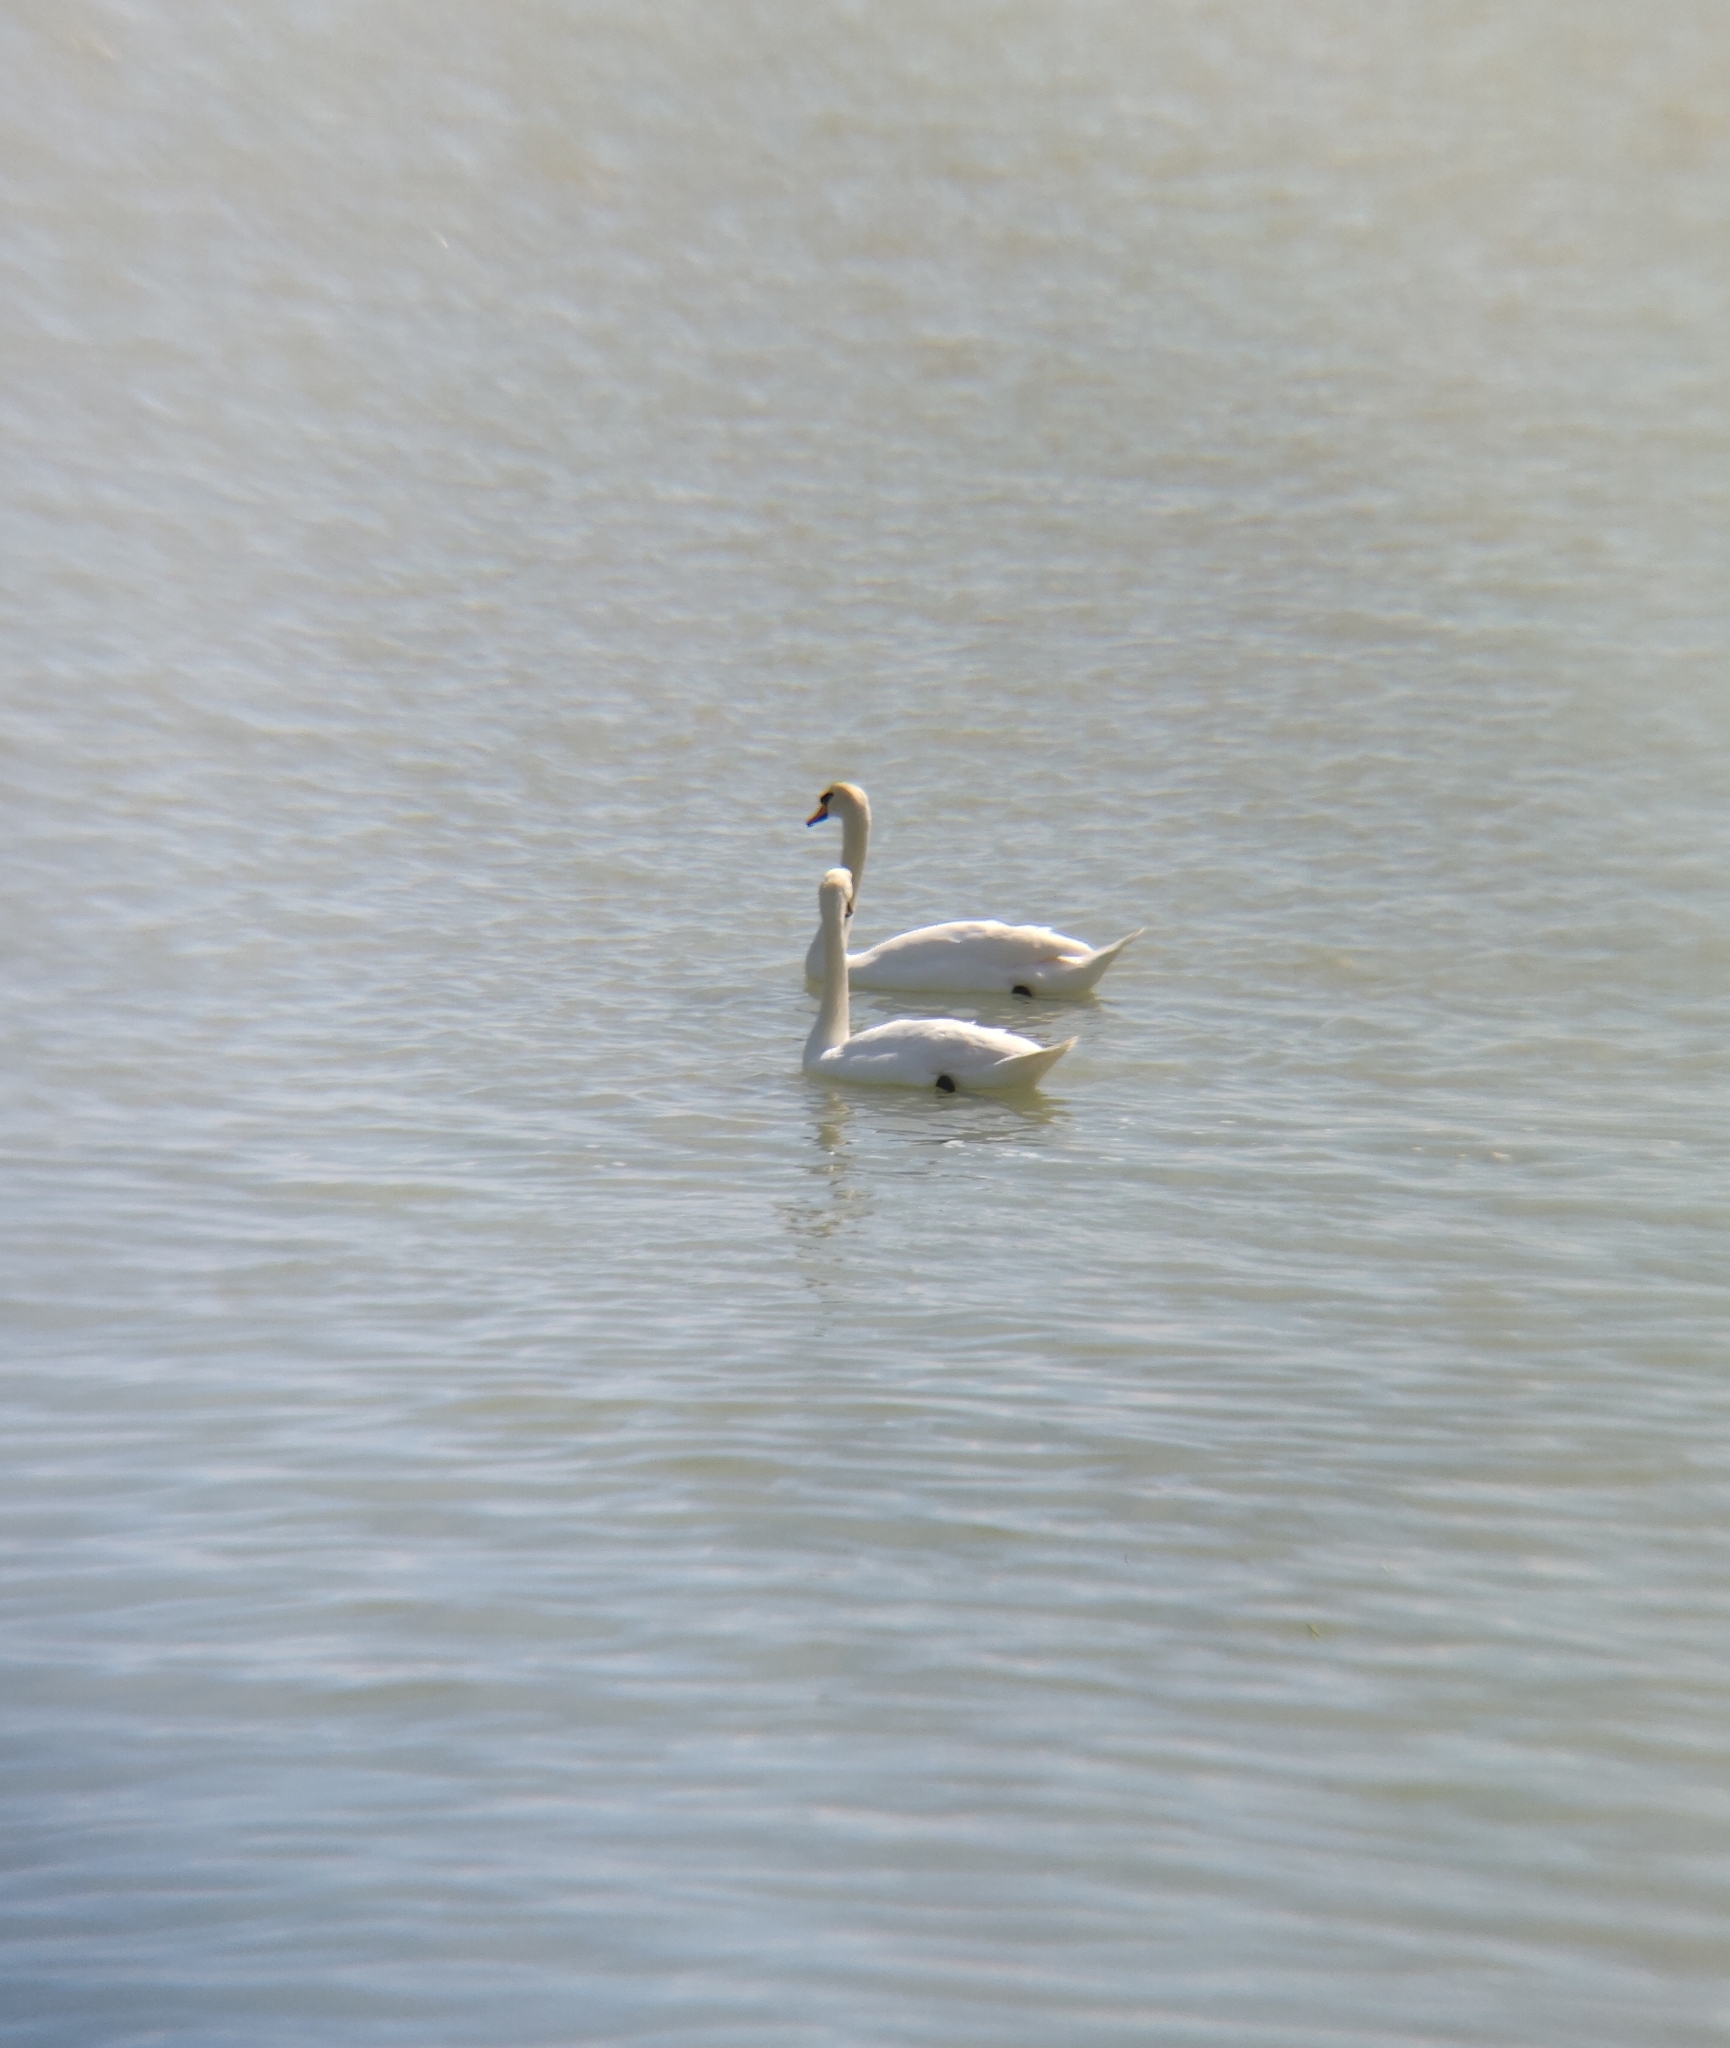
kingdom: Animalia
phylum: Chordata
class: Aves
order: Anseriformes
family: Anatidae
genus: Cygnus
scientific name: Cygnus olor
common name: Mute swan
